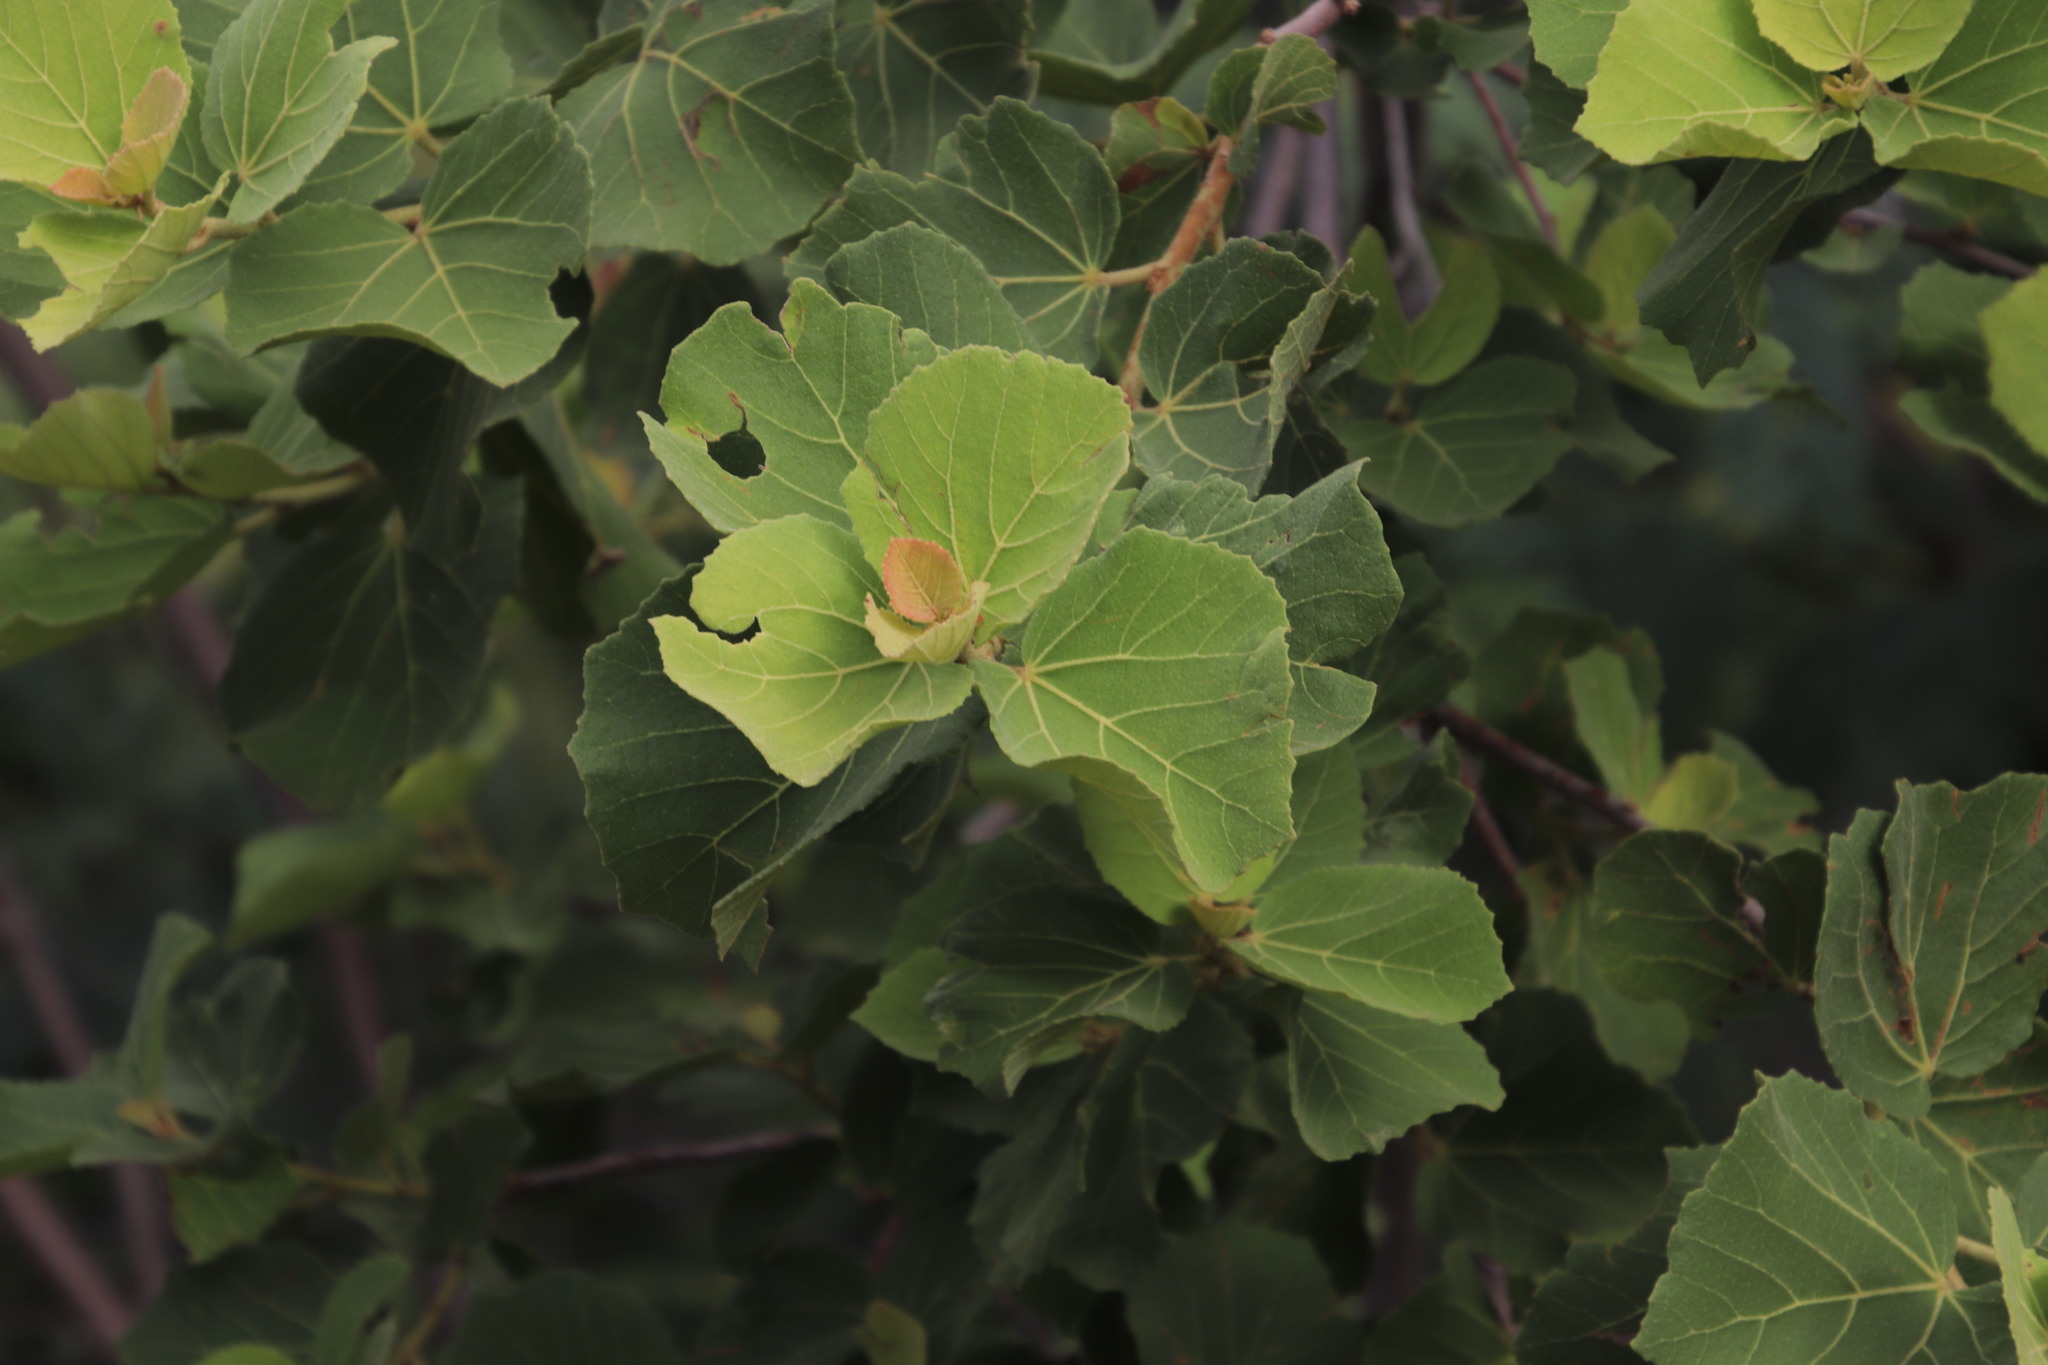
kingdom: Plantae
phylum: Tracheophyta
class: Magnoliopsida
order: Malvales
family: Malvaceae
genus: Dombeya
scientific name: Dombeya rotundifolia
